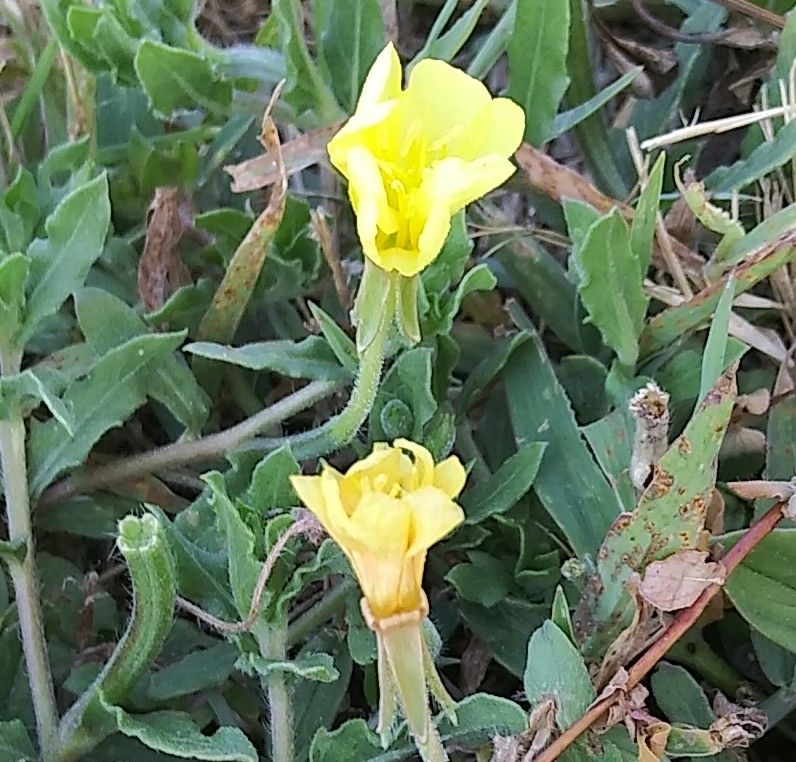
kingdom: Plantae
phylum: Tracheophyta
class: Magnoliopsida
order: Myrtales
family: Onagraceae
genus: Oenothera
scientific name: Oenothera laciniata
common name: Cut-leaved evening-primrose
